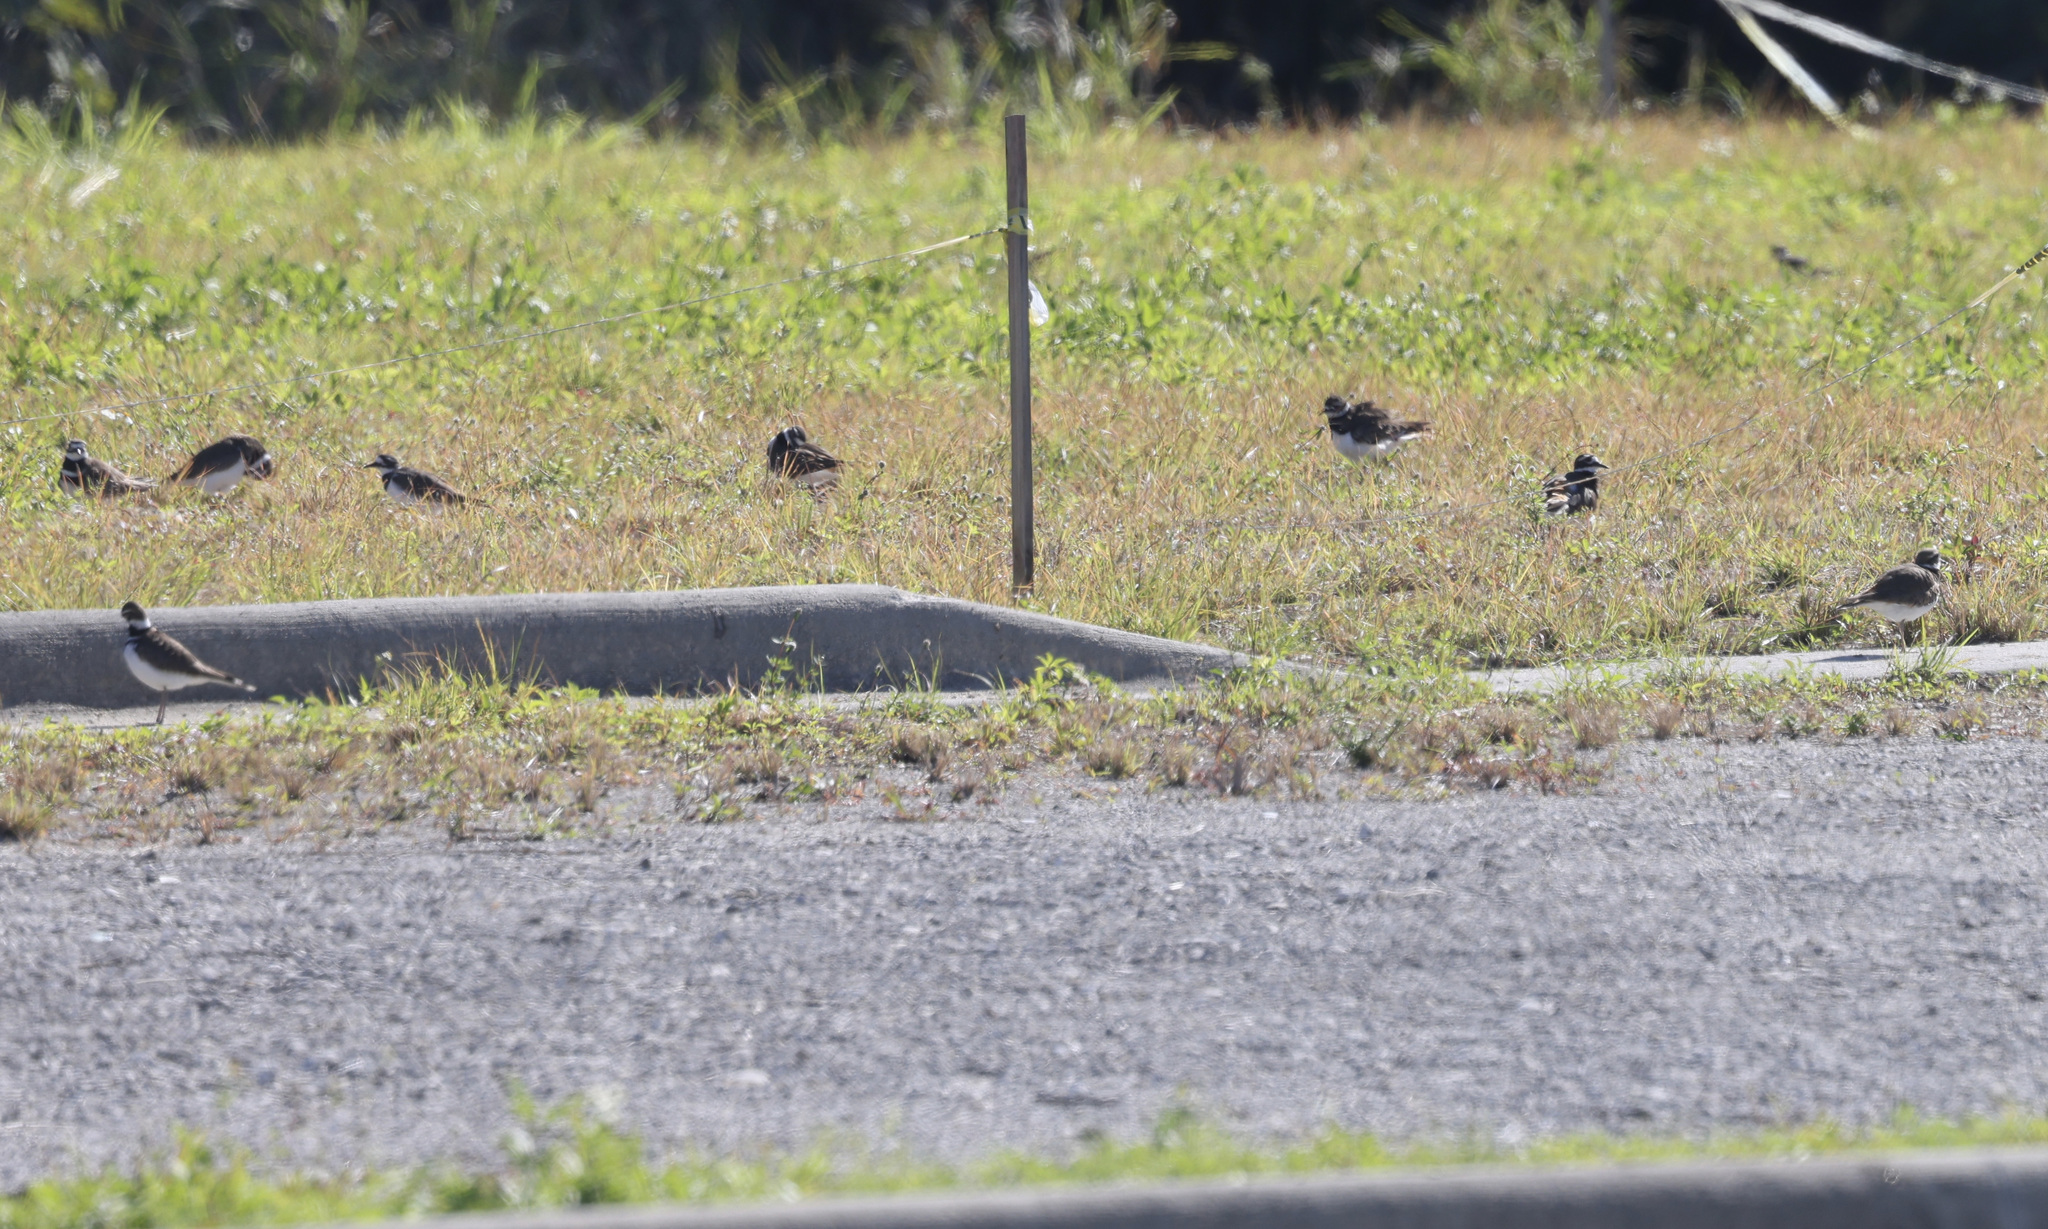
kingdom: Animalia
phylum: Chordata
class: Aves
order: Charadriiformes
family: Charadriidae
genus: Charadrius
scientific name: Charadrius vociferus
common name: Killdeer
